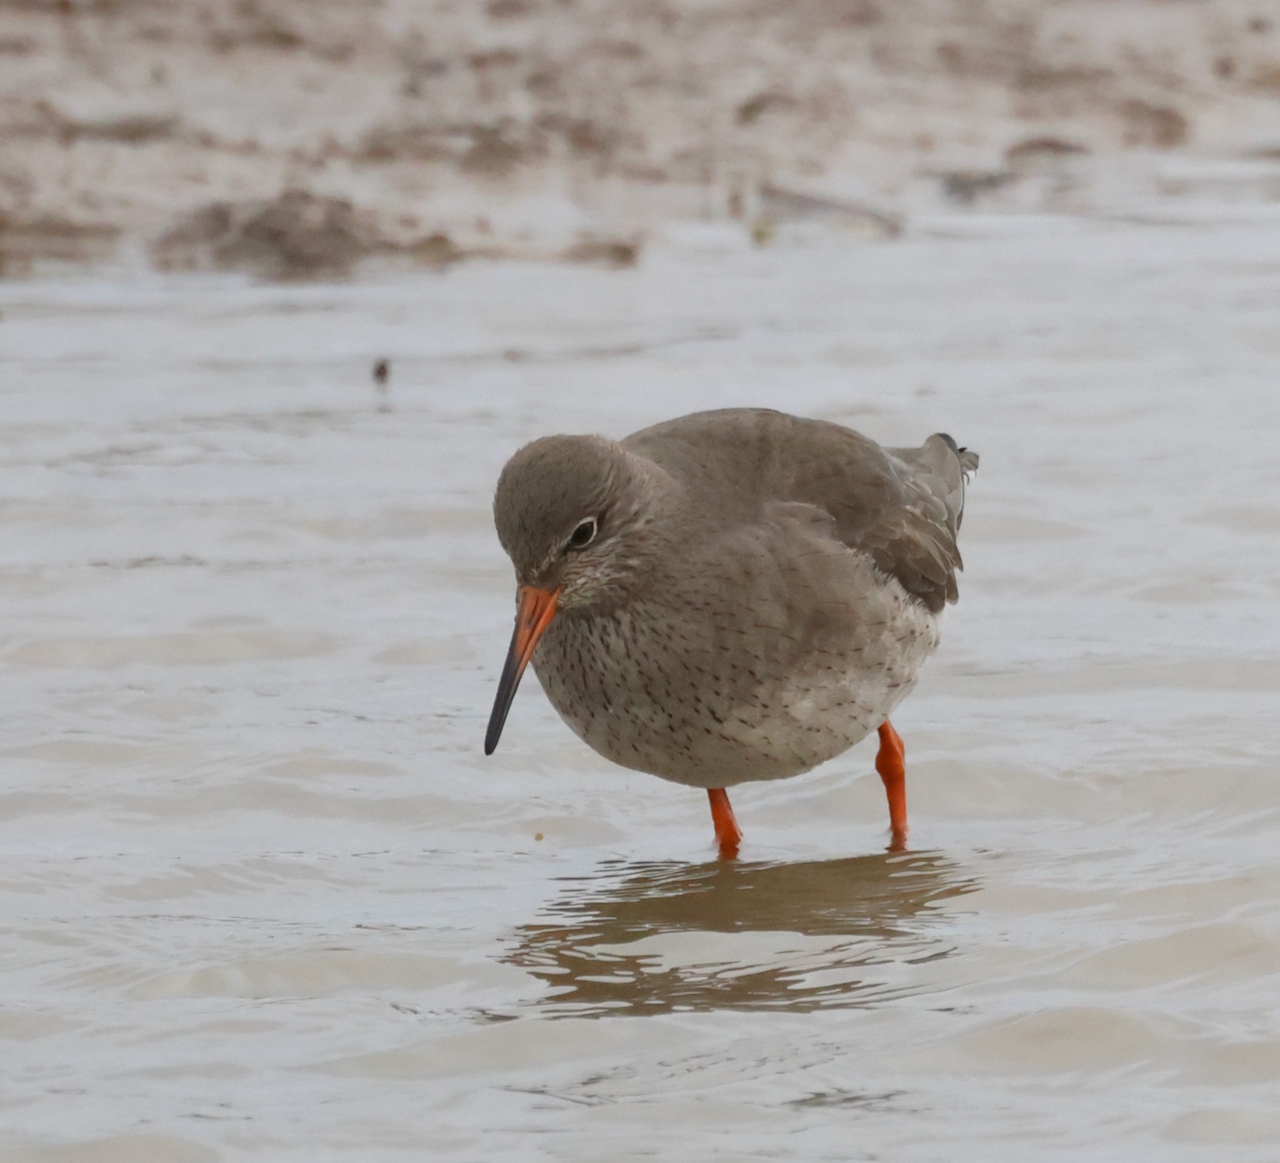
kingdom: Animalia
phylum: Chordata
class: Aves
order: Charadriiformes
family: Scolopacidae
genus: Tringa
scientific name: Tringa totanus
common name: Common redshank
